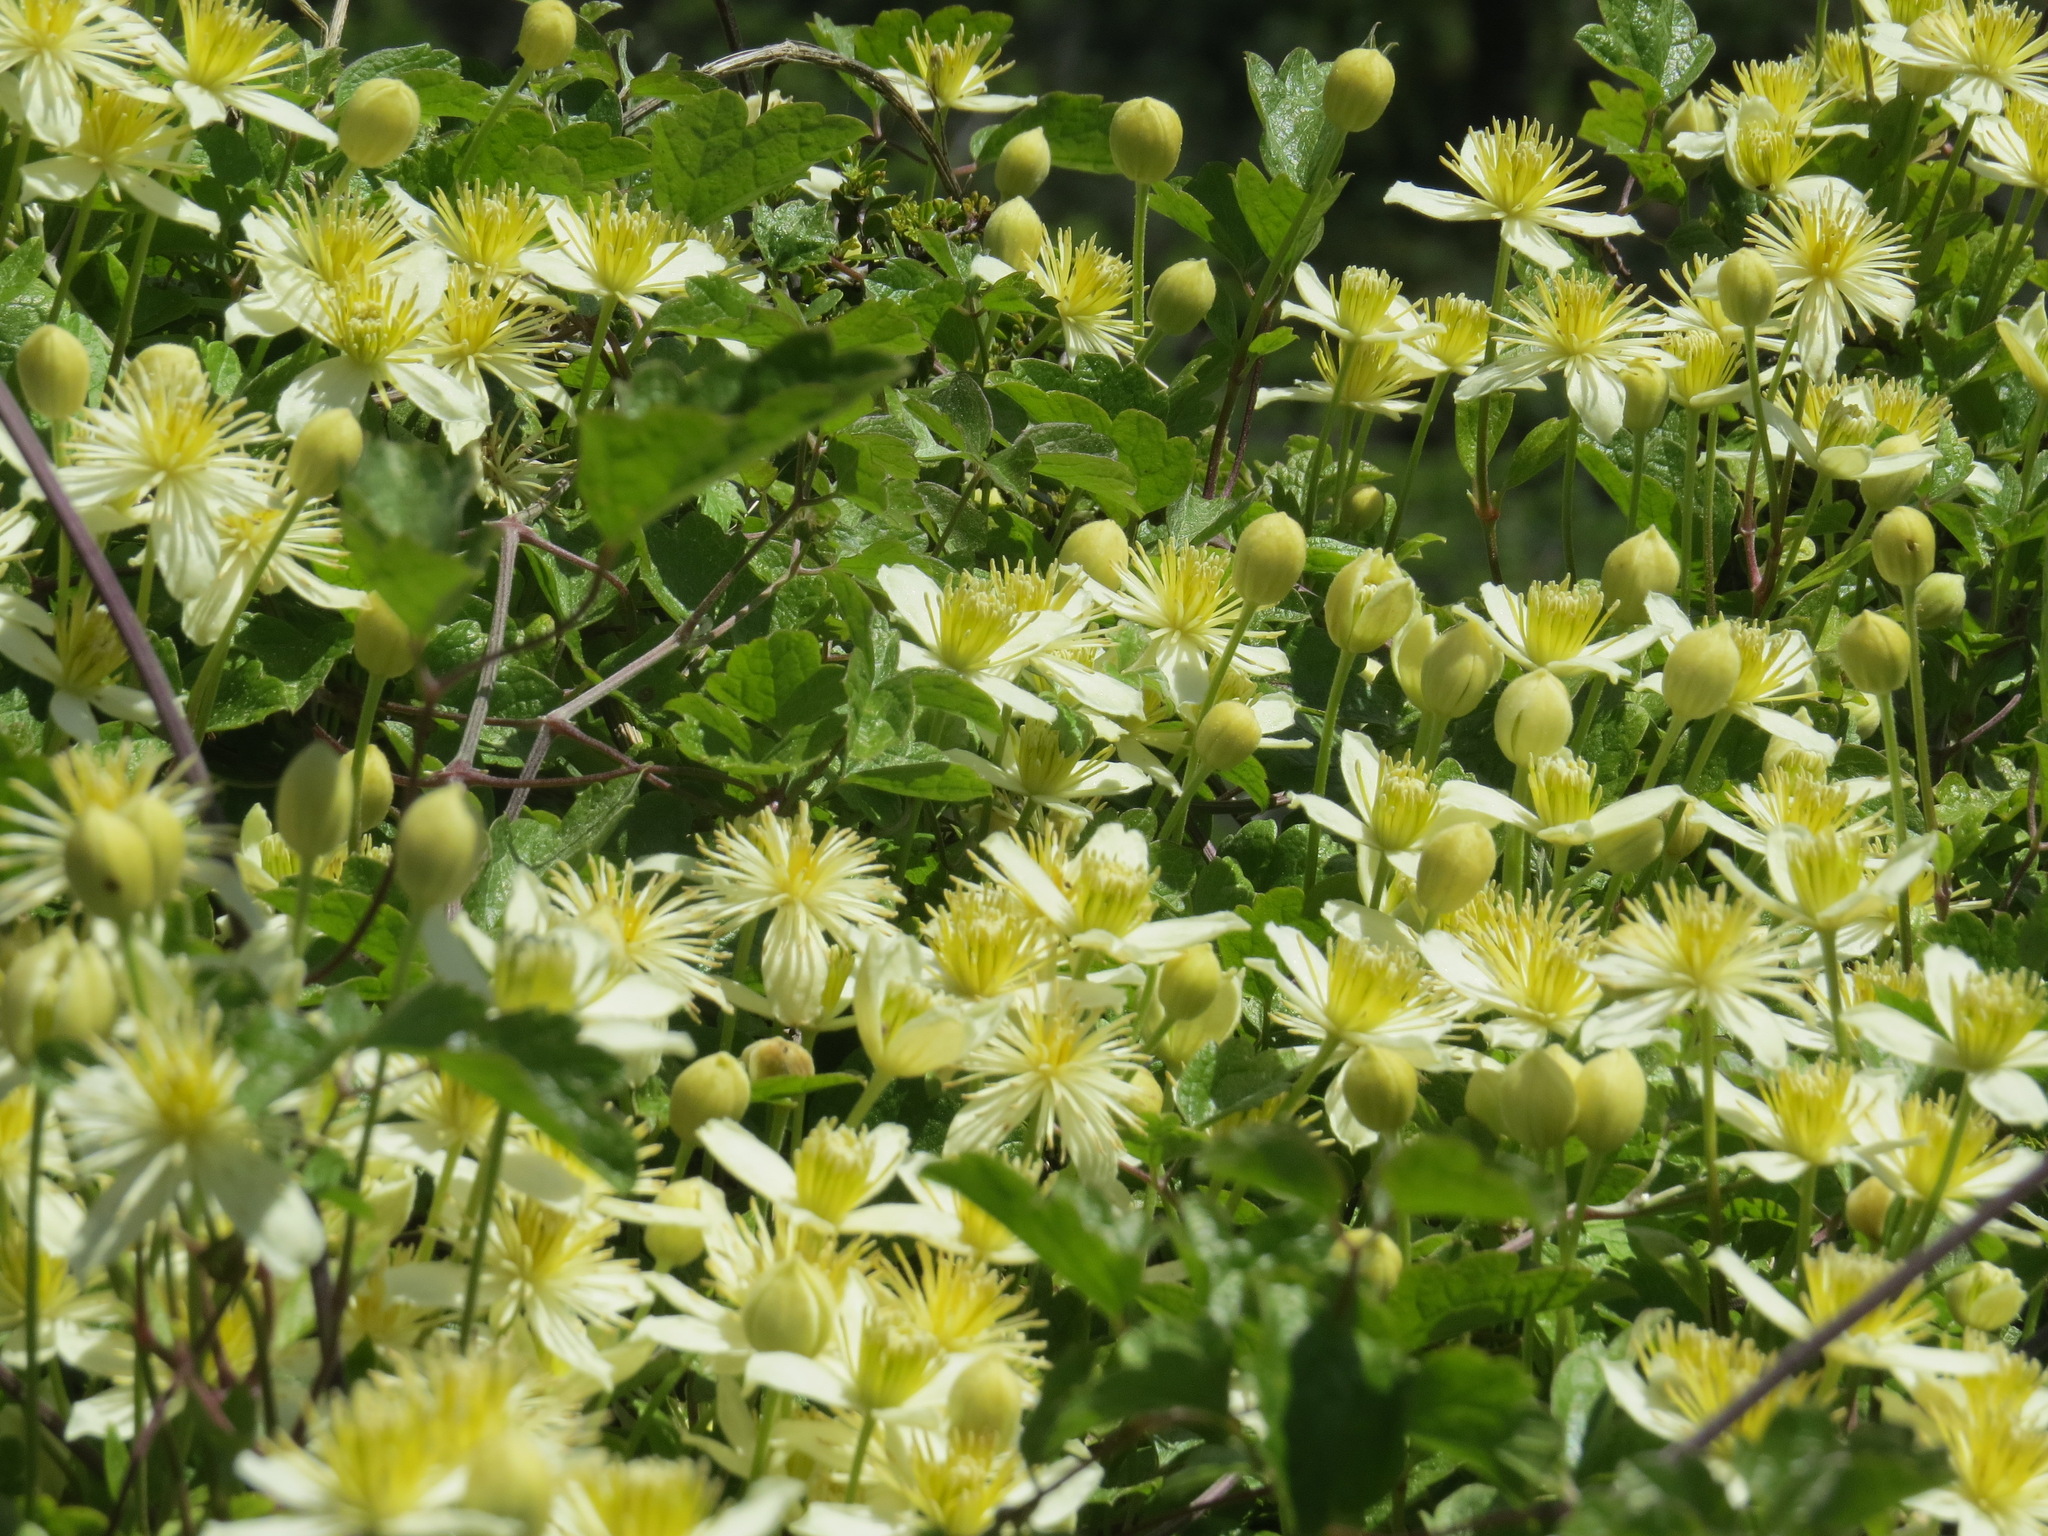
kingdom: Plantae
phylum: Tracheophyta
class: Magnoliopsida
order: Ranunculales
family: Ranunculaceae
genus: Clematis
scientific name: Clematis lasiantha
